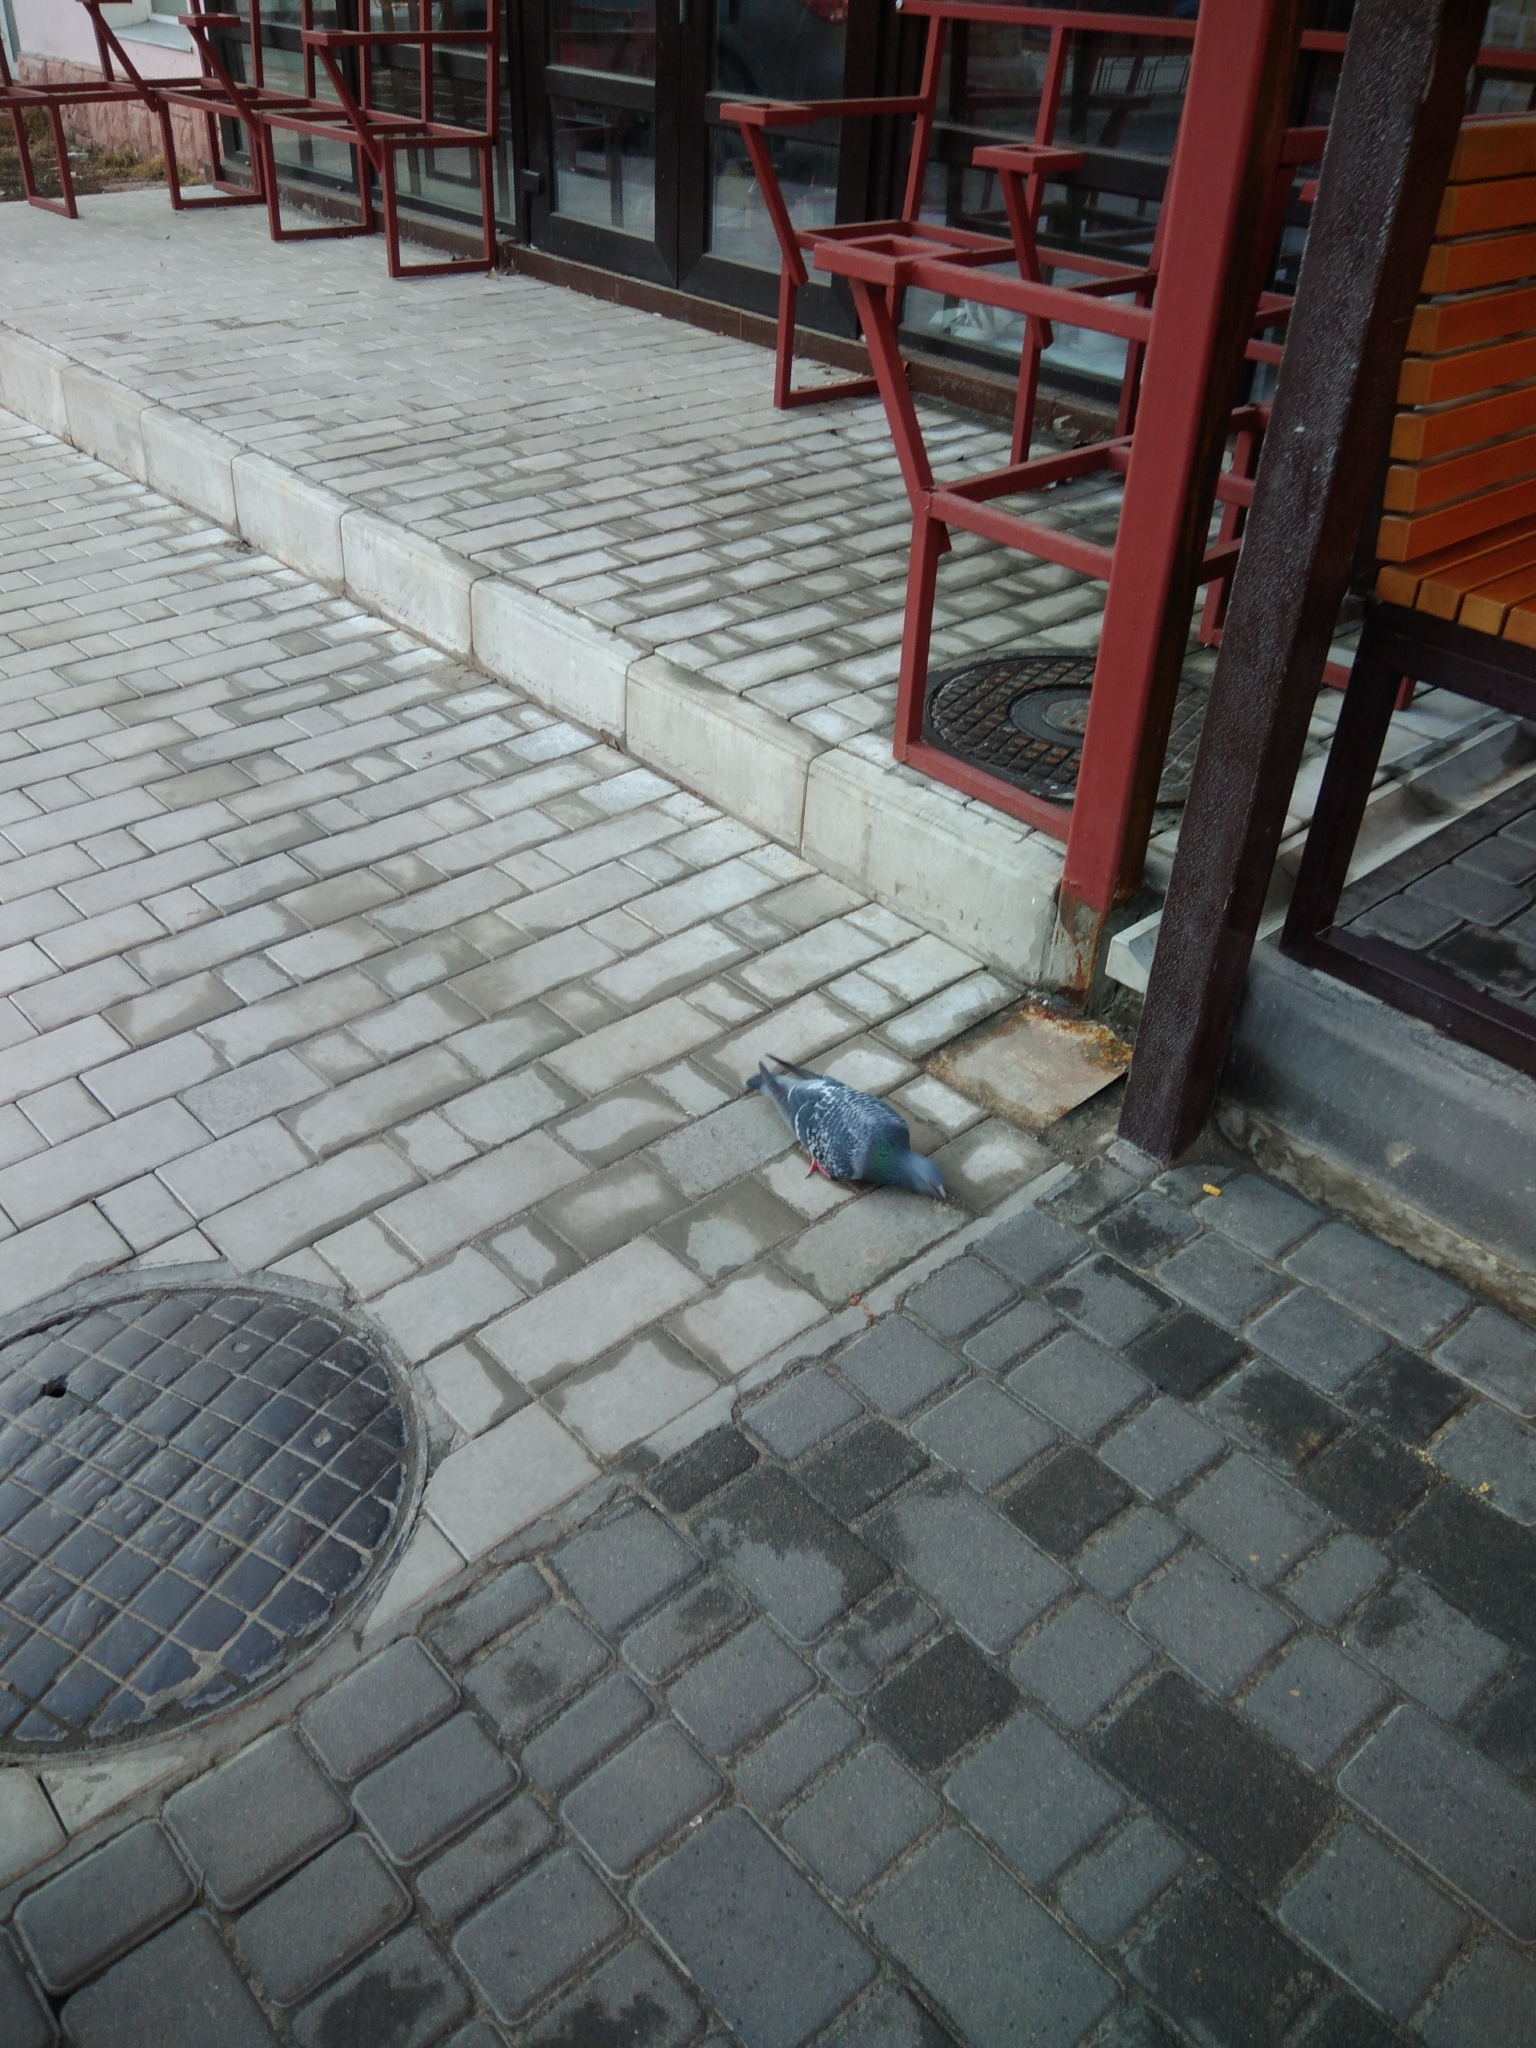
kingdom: Animalia
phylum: Chordata
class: Aves
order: Columbiformes
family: Columbidae
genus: Columba
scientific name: Columba livia
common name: Rock pigeon
